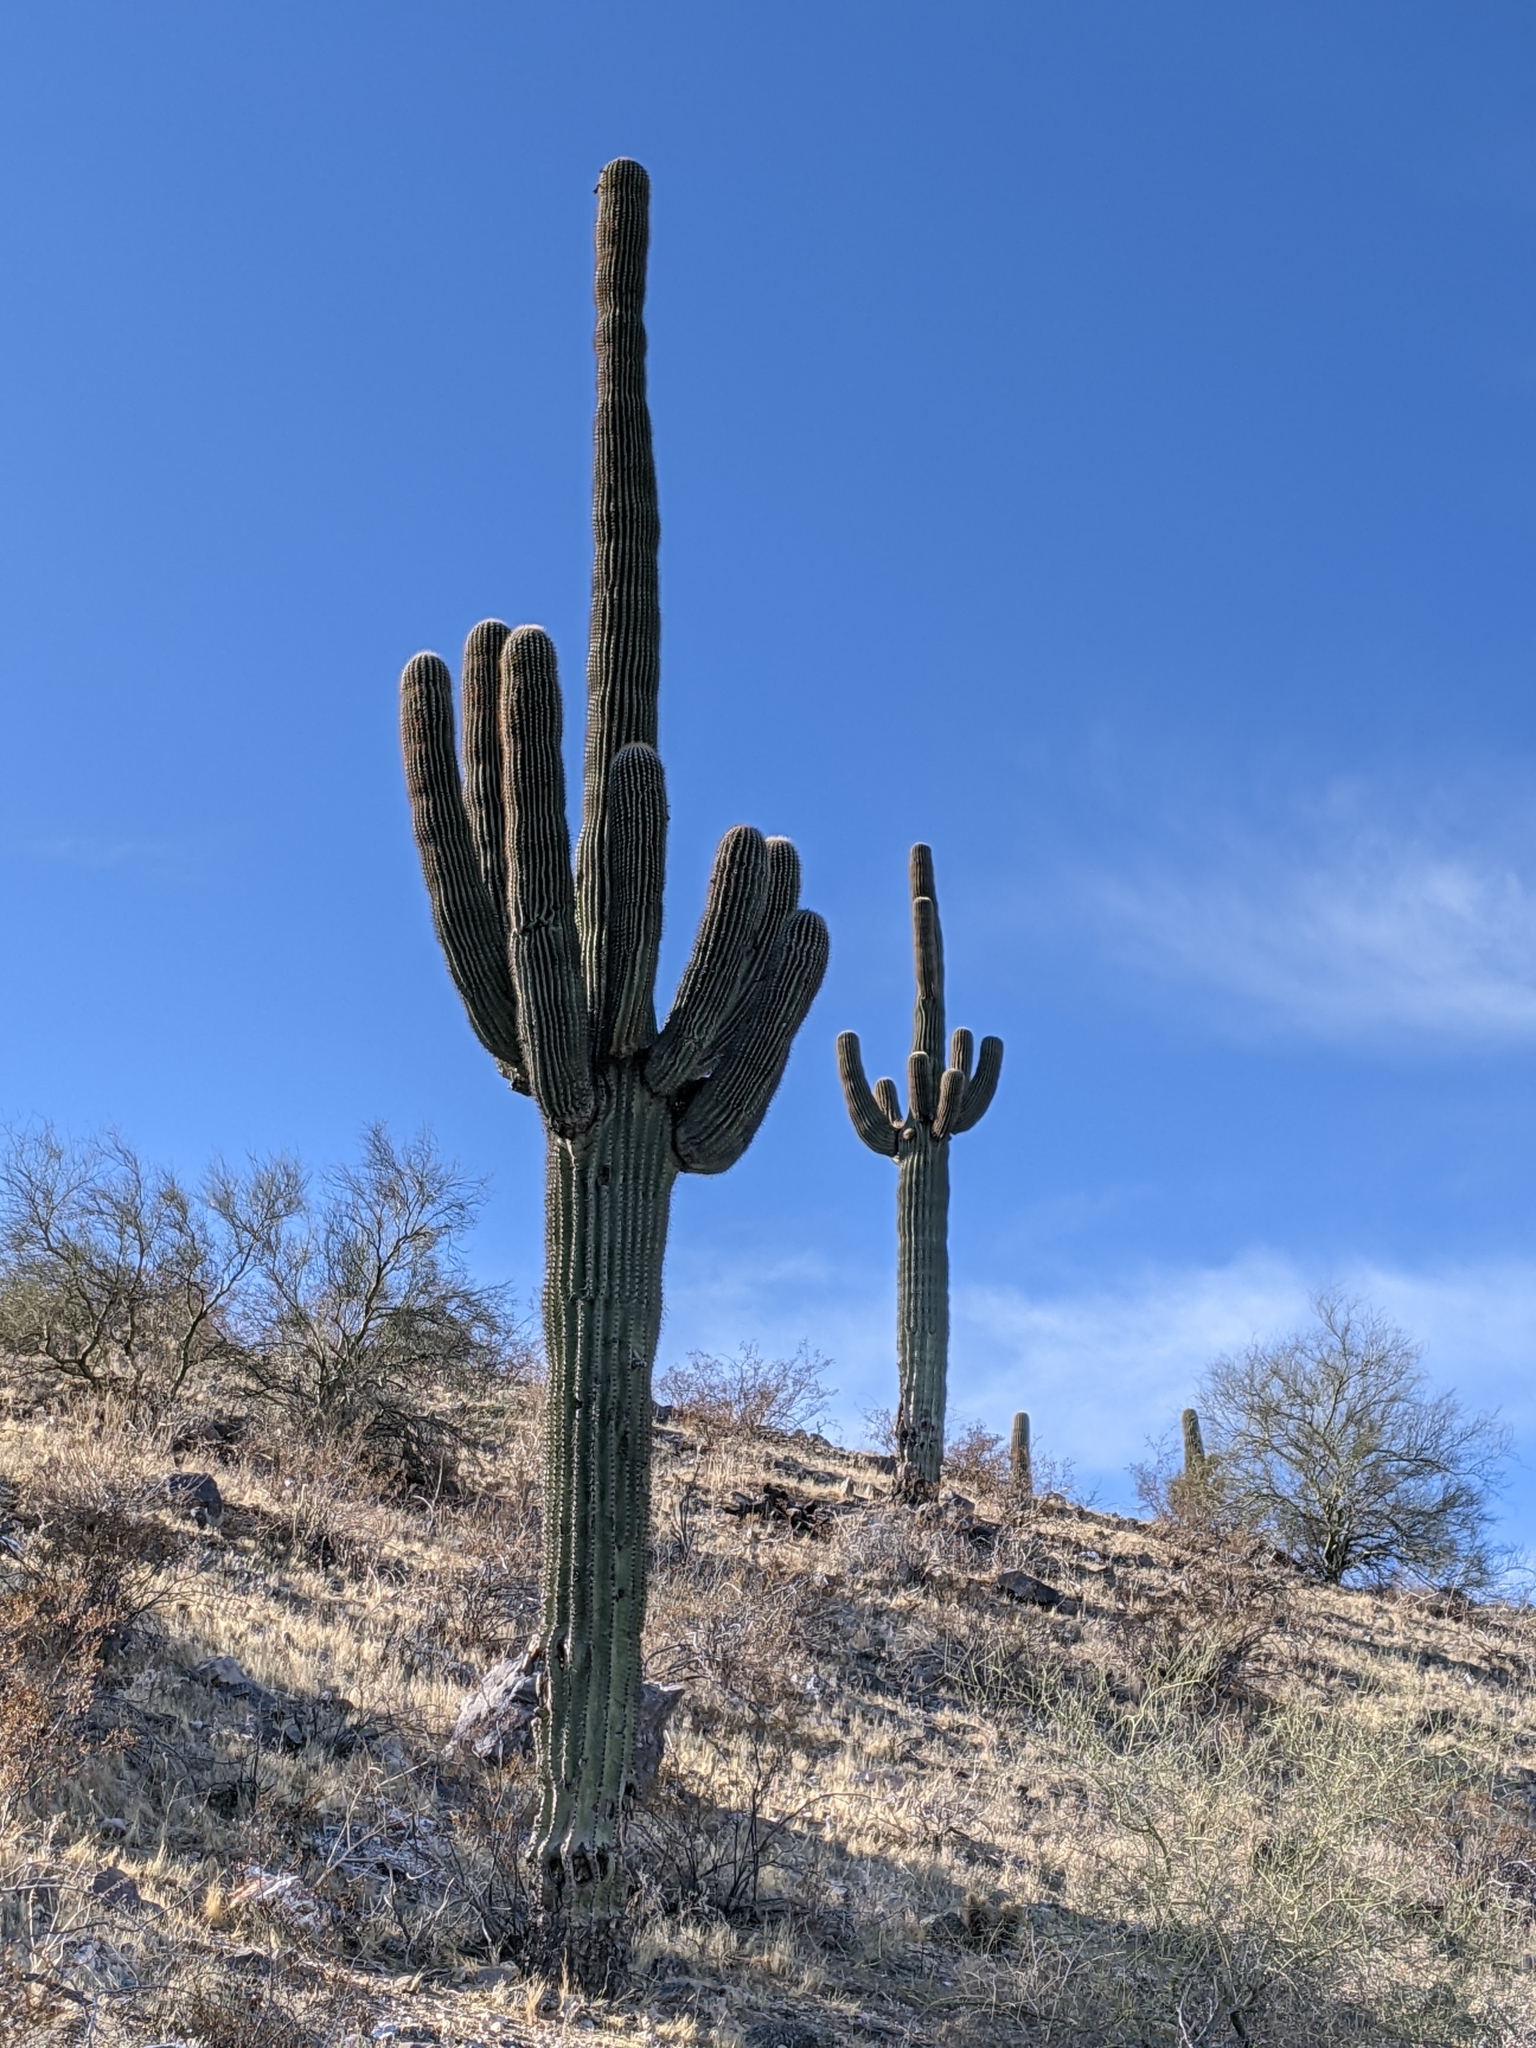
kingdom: Plantae
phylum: Tracheophyta
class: Magnoliopsida
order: Caryophyllales
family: Cactaceae
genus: Carnegiea
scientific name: Carnegiea gigantea
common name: Saguaro
